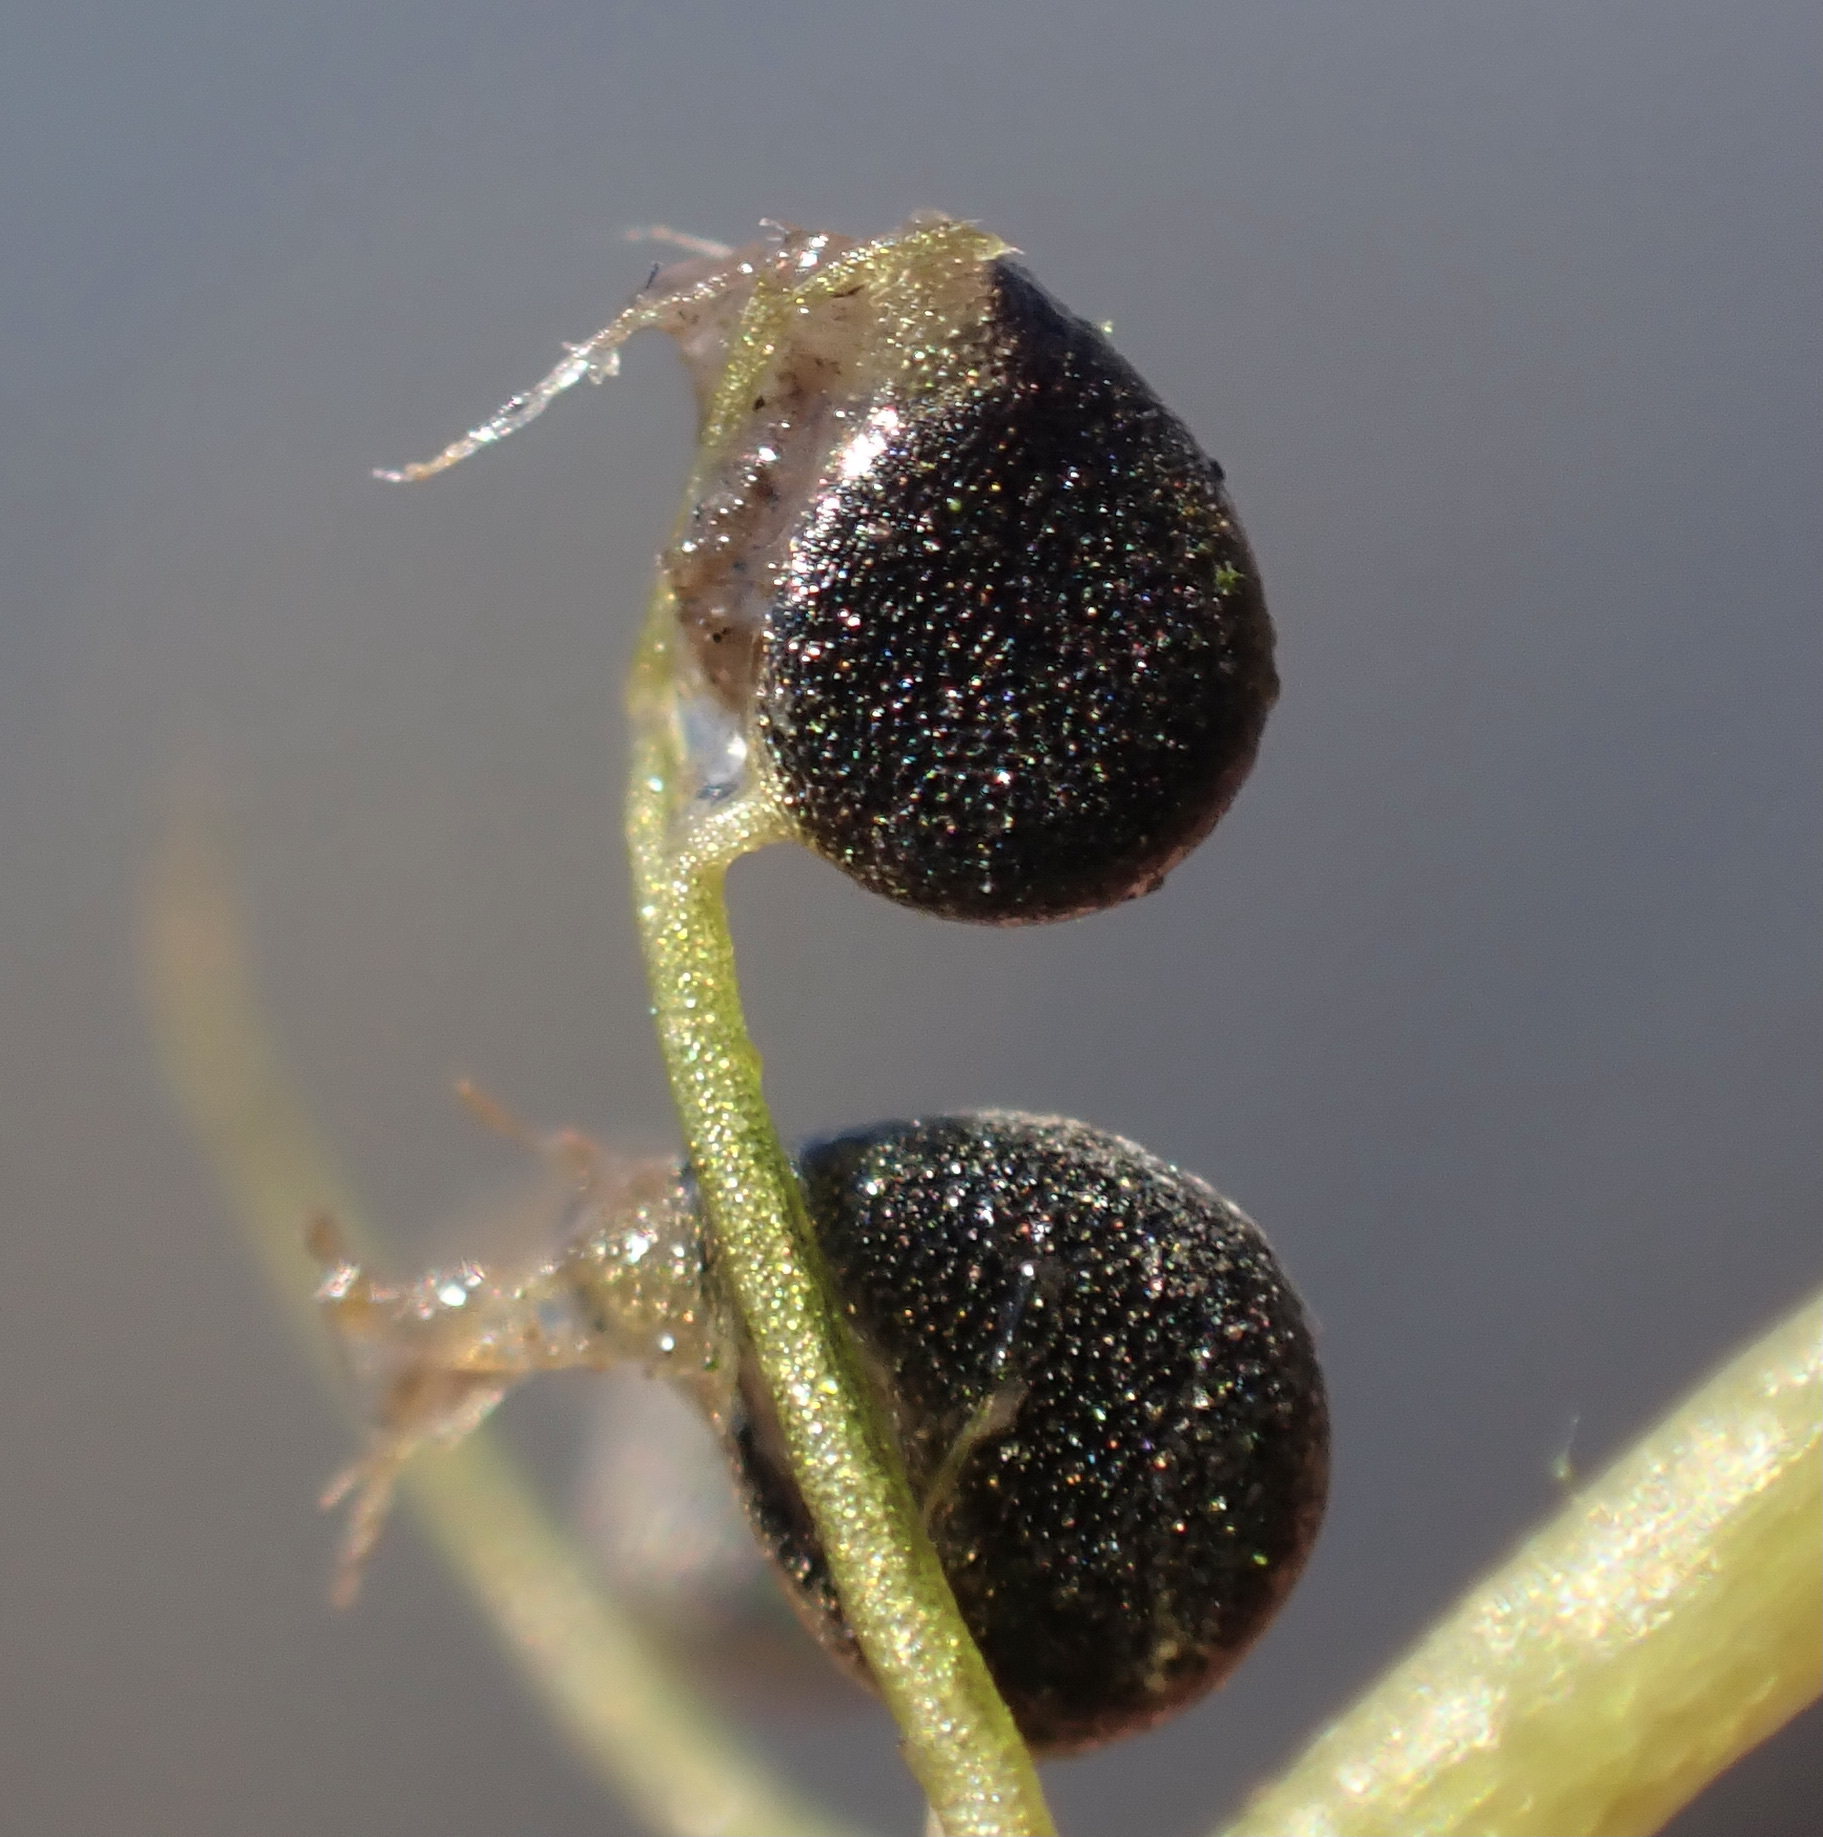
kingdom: Plantae
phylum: Tracheophyta
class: Magnoliopsida
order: Lamiales
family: Lentibulariaceae
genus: Utricularia
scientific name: Utricularia gibba
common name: Humped bladderwort
